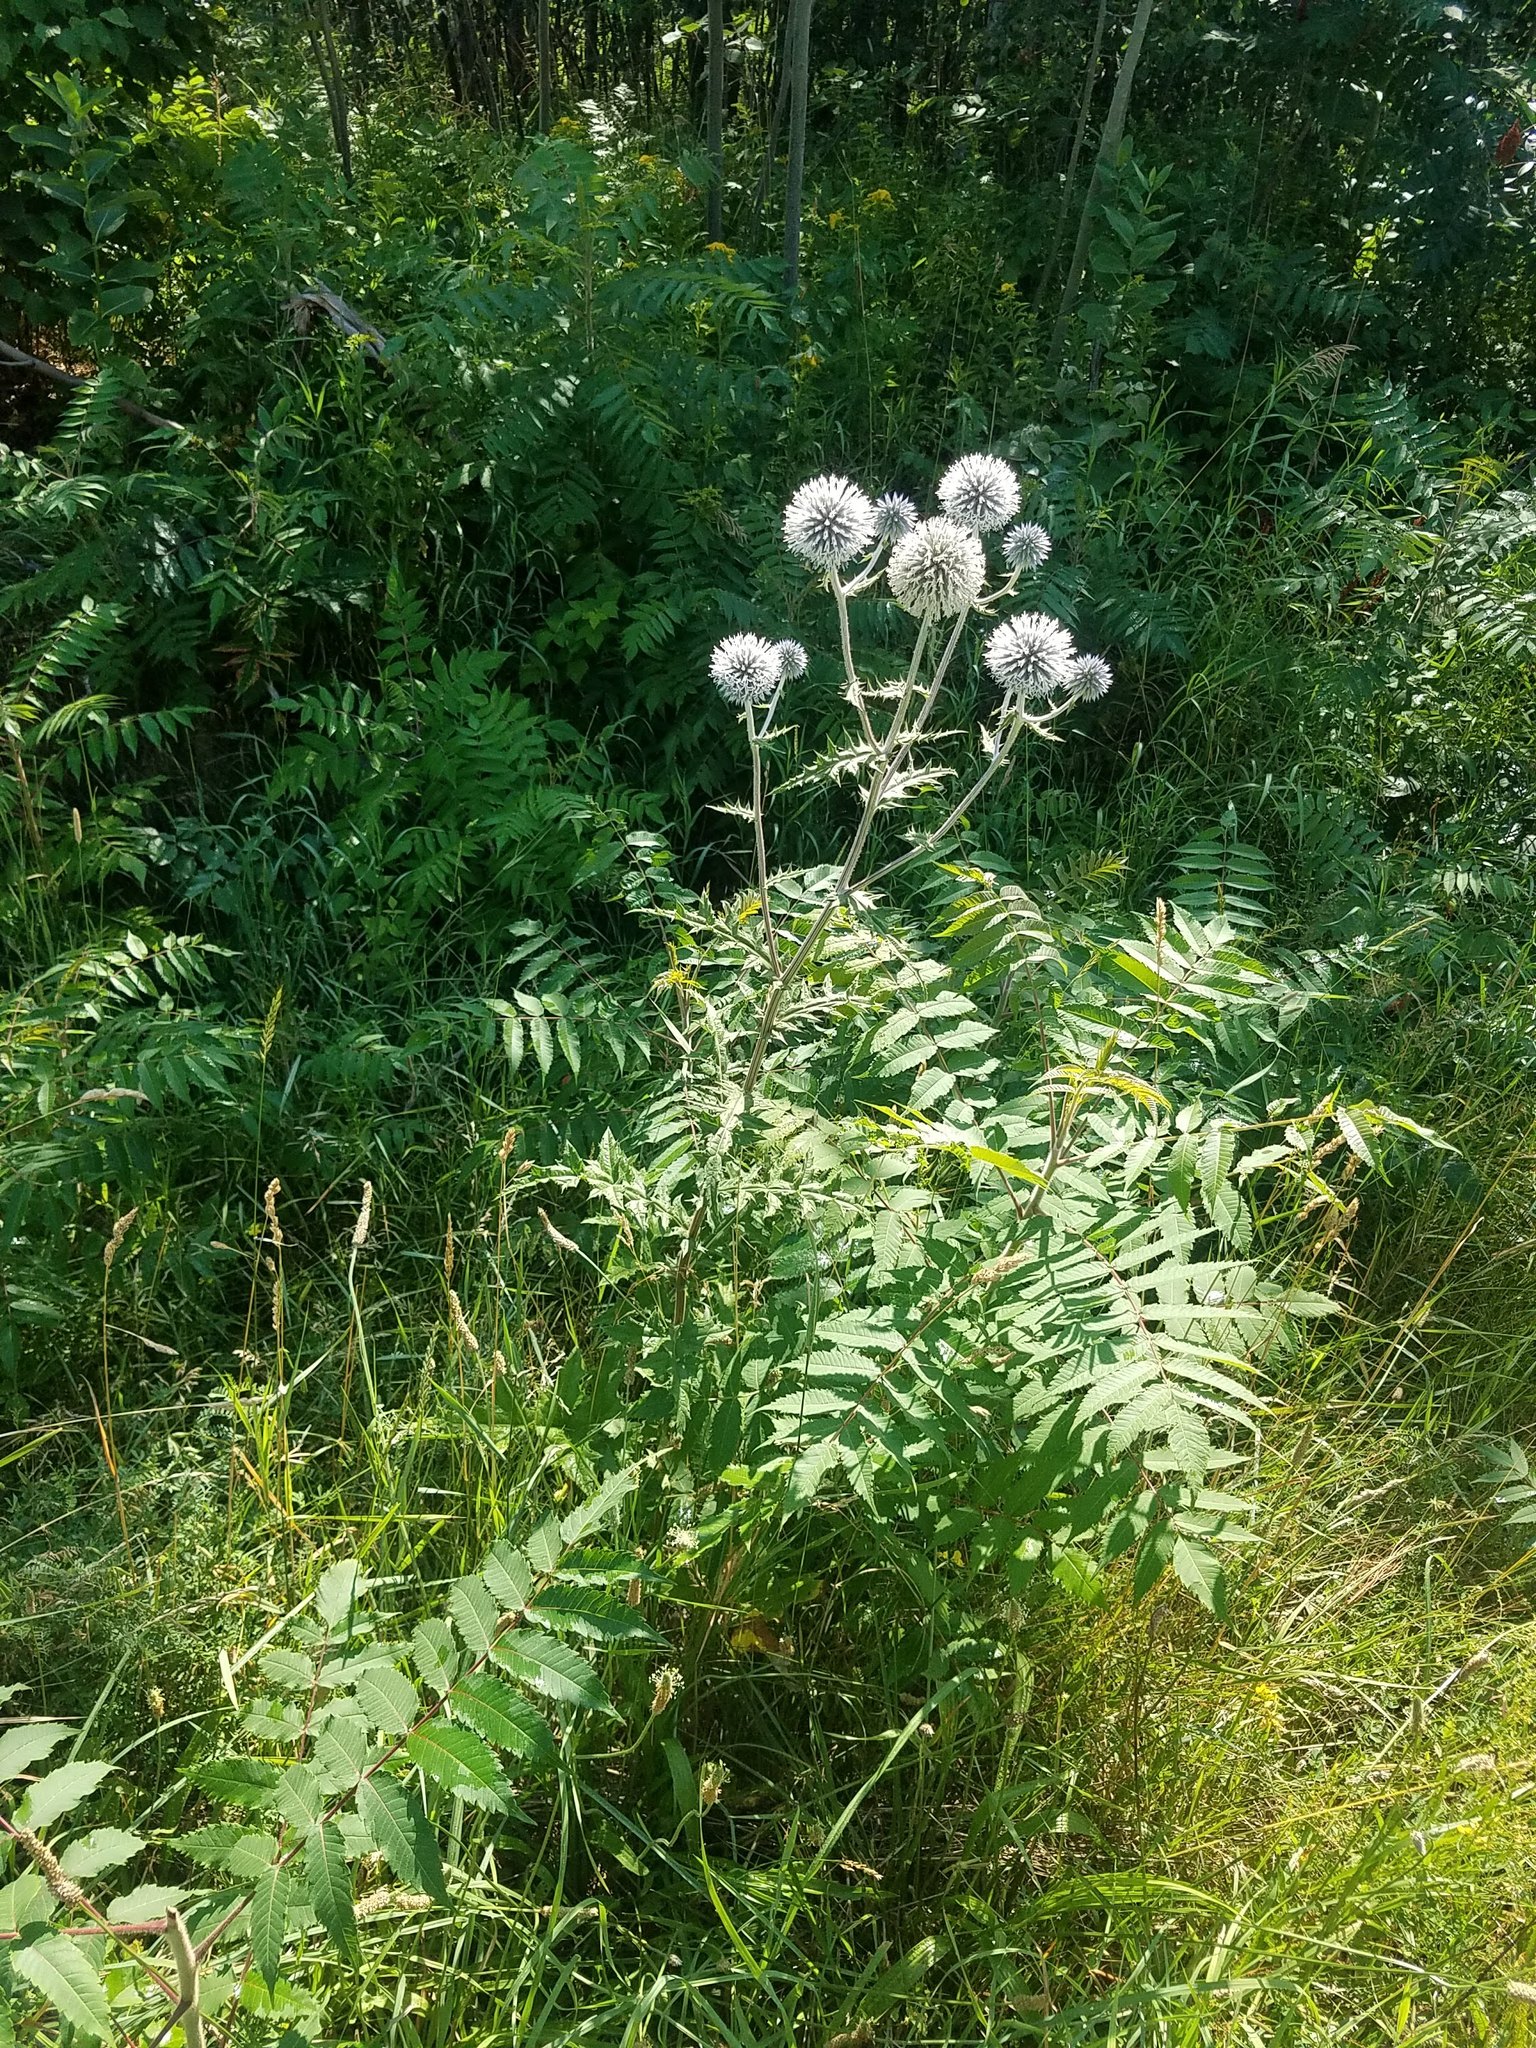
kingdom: Plantae
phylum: Tracheophyta
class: Magnoliopsida
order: Asterales
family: Asteraceae
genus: Echinops
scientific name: Echinops sphaerocephalus
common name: Glandular globe-thistle
